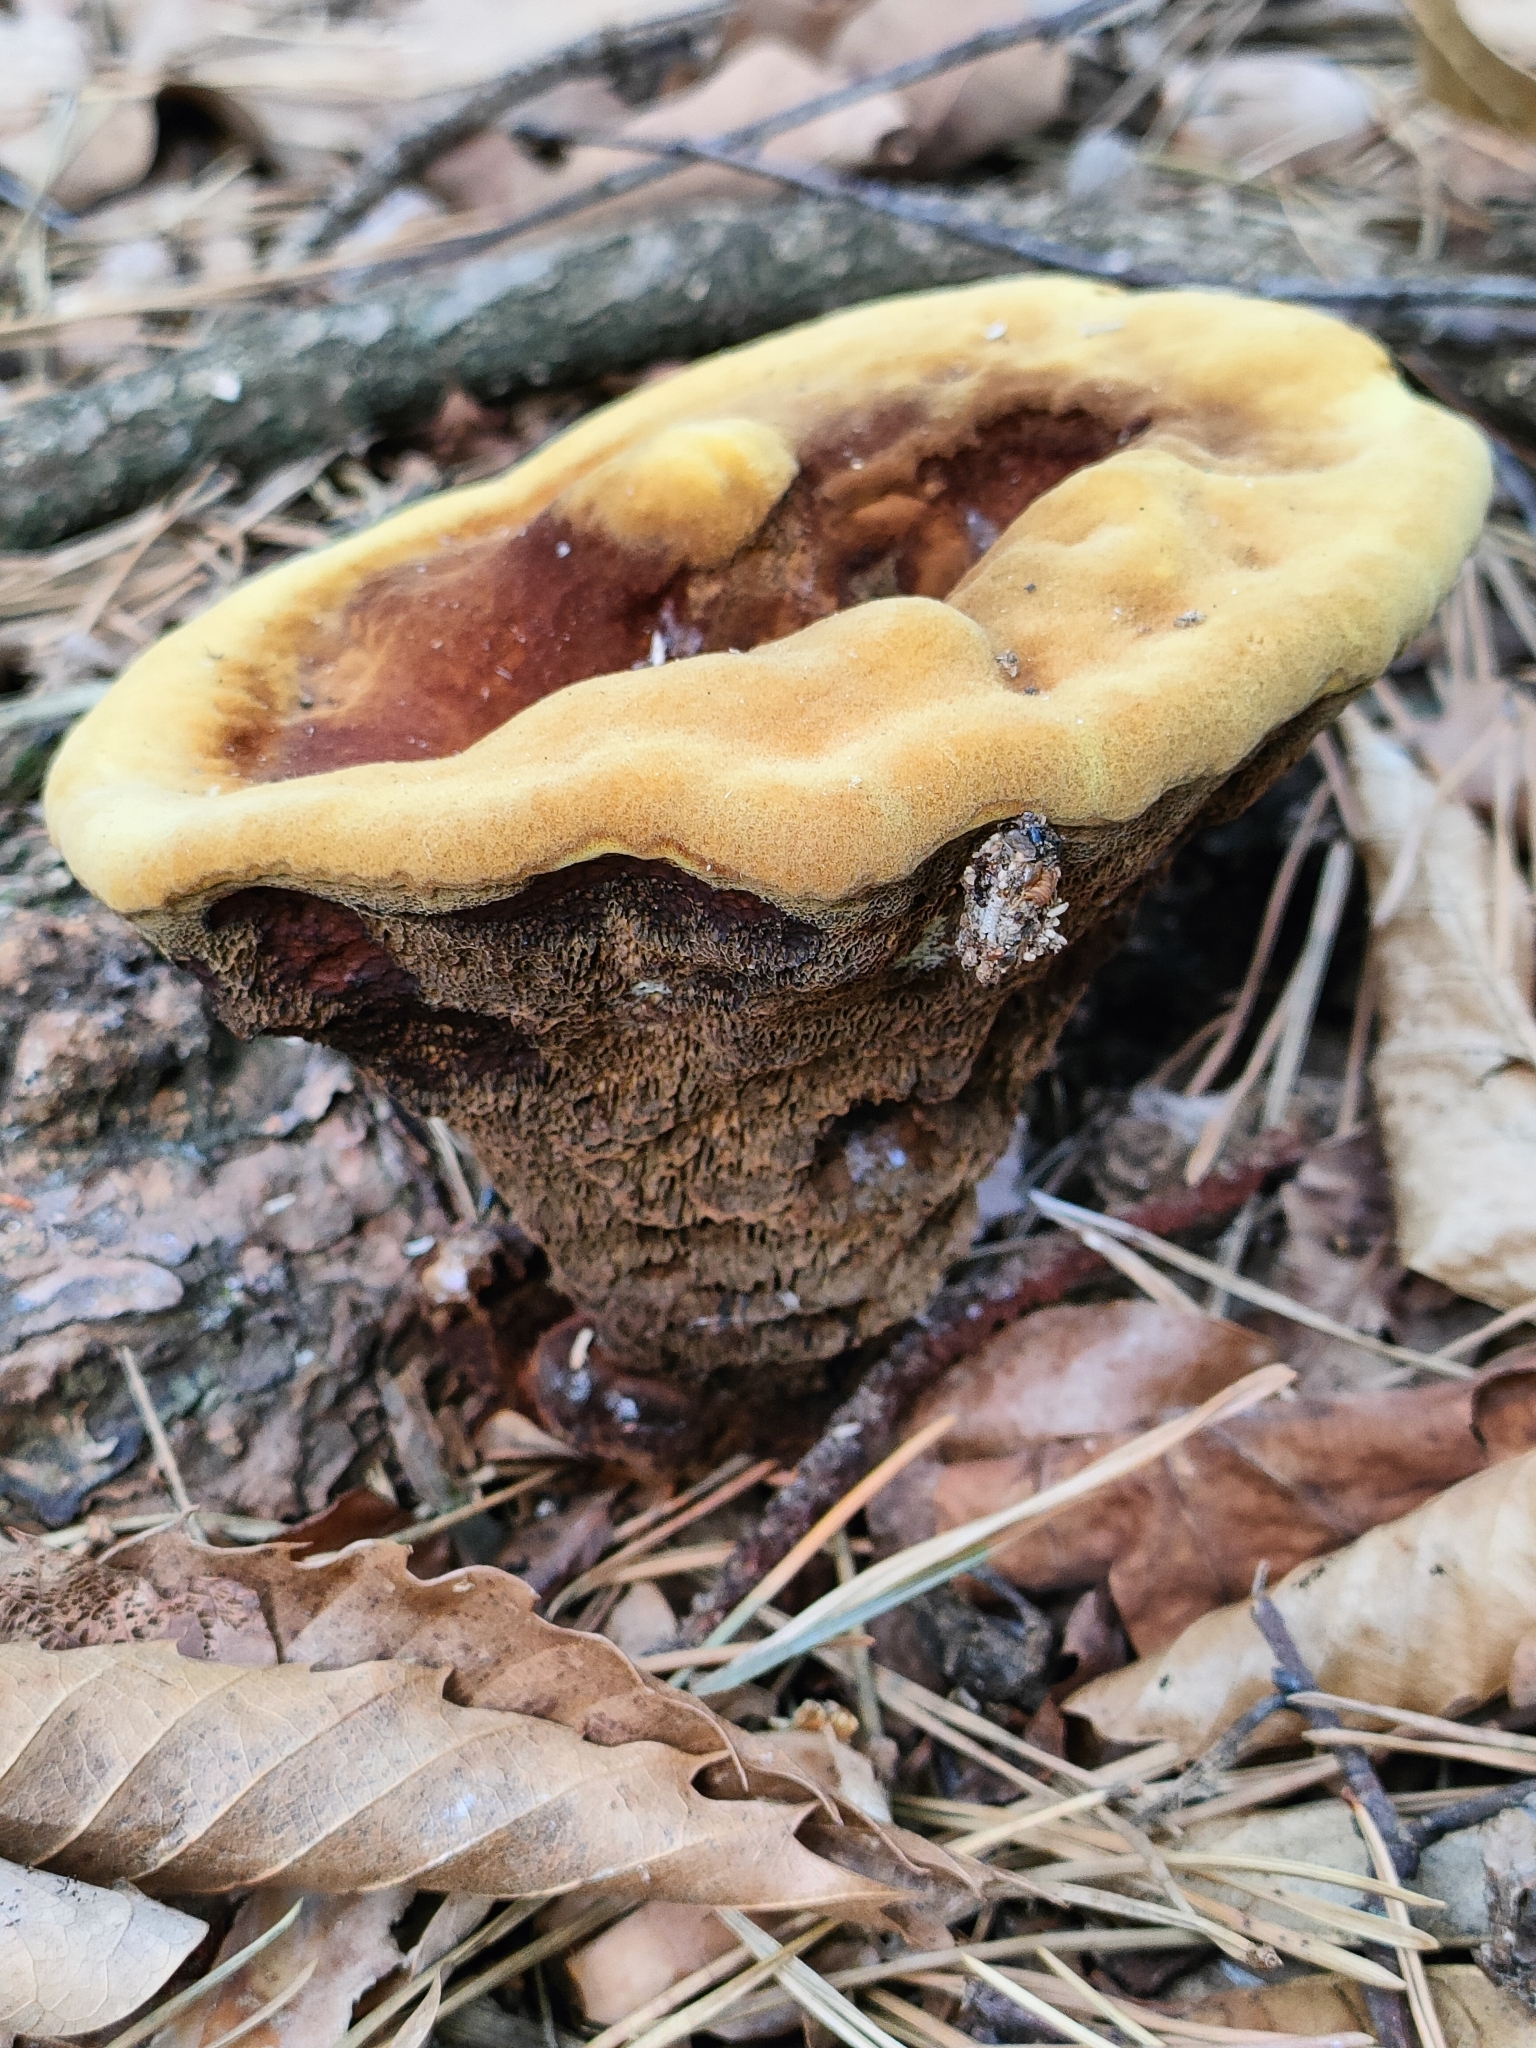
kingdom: Fungi
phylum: Basidiomycota
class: Agaricomycetes
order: Polyporales
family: Laetiporaceae
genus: Phaeolus
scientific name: Phaeolus schweinitzii
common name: Dyer's mazegill
